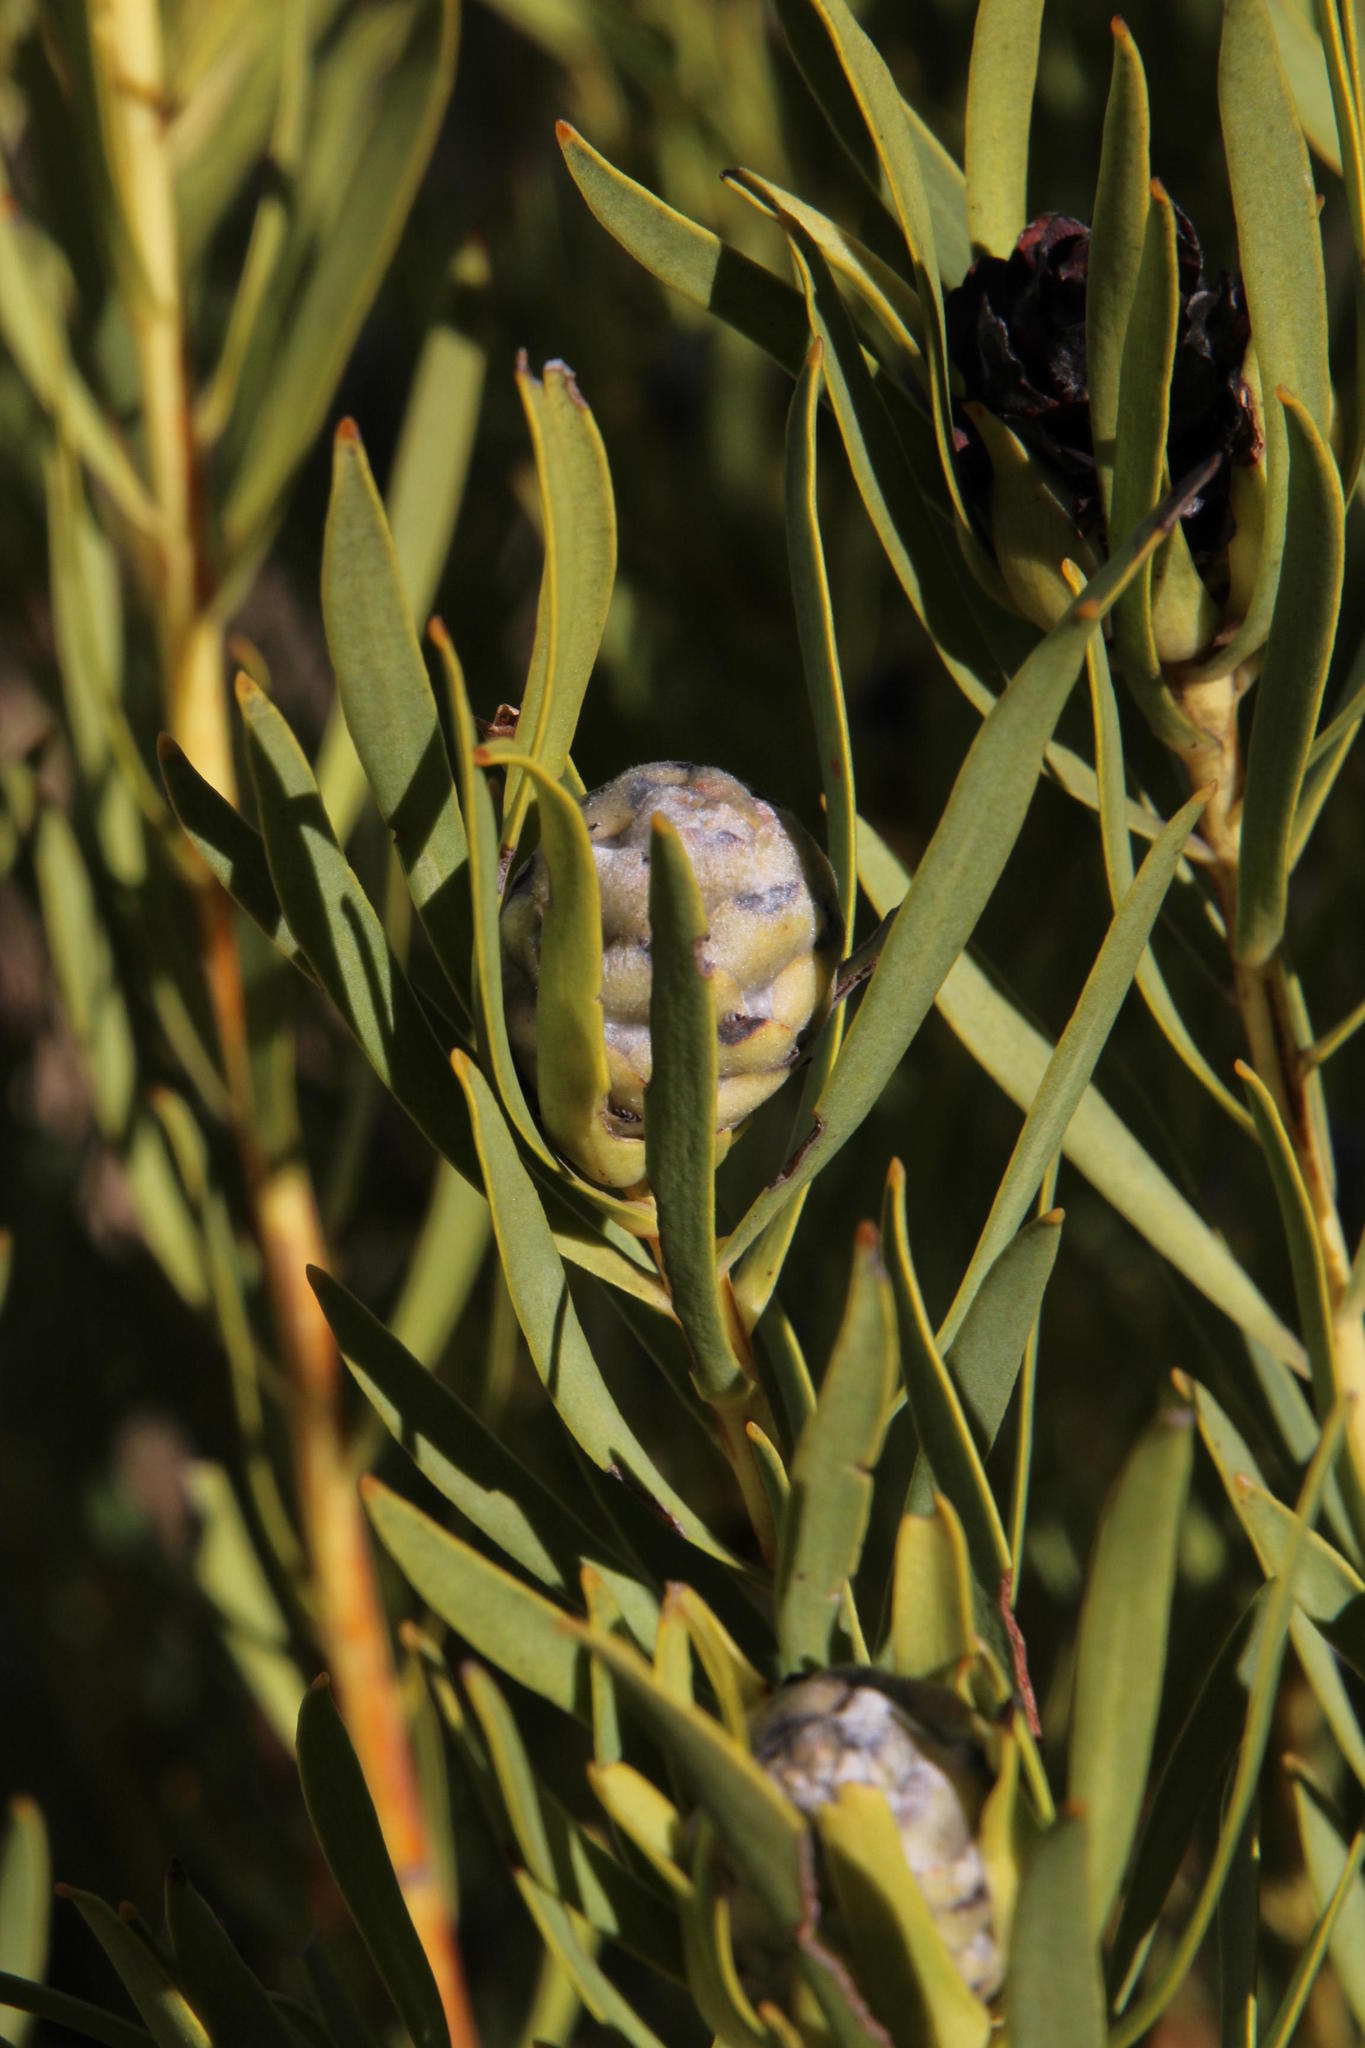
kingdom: Plantae
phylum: Tracheophyta
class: Magnoliopsida
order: Proteales
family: Proteaceae
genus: Leucadendron
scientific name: Leucadendron salignum
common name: Common sunshine conebush
